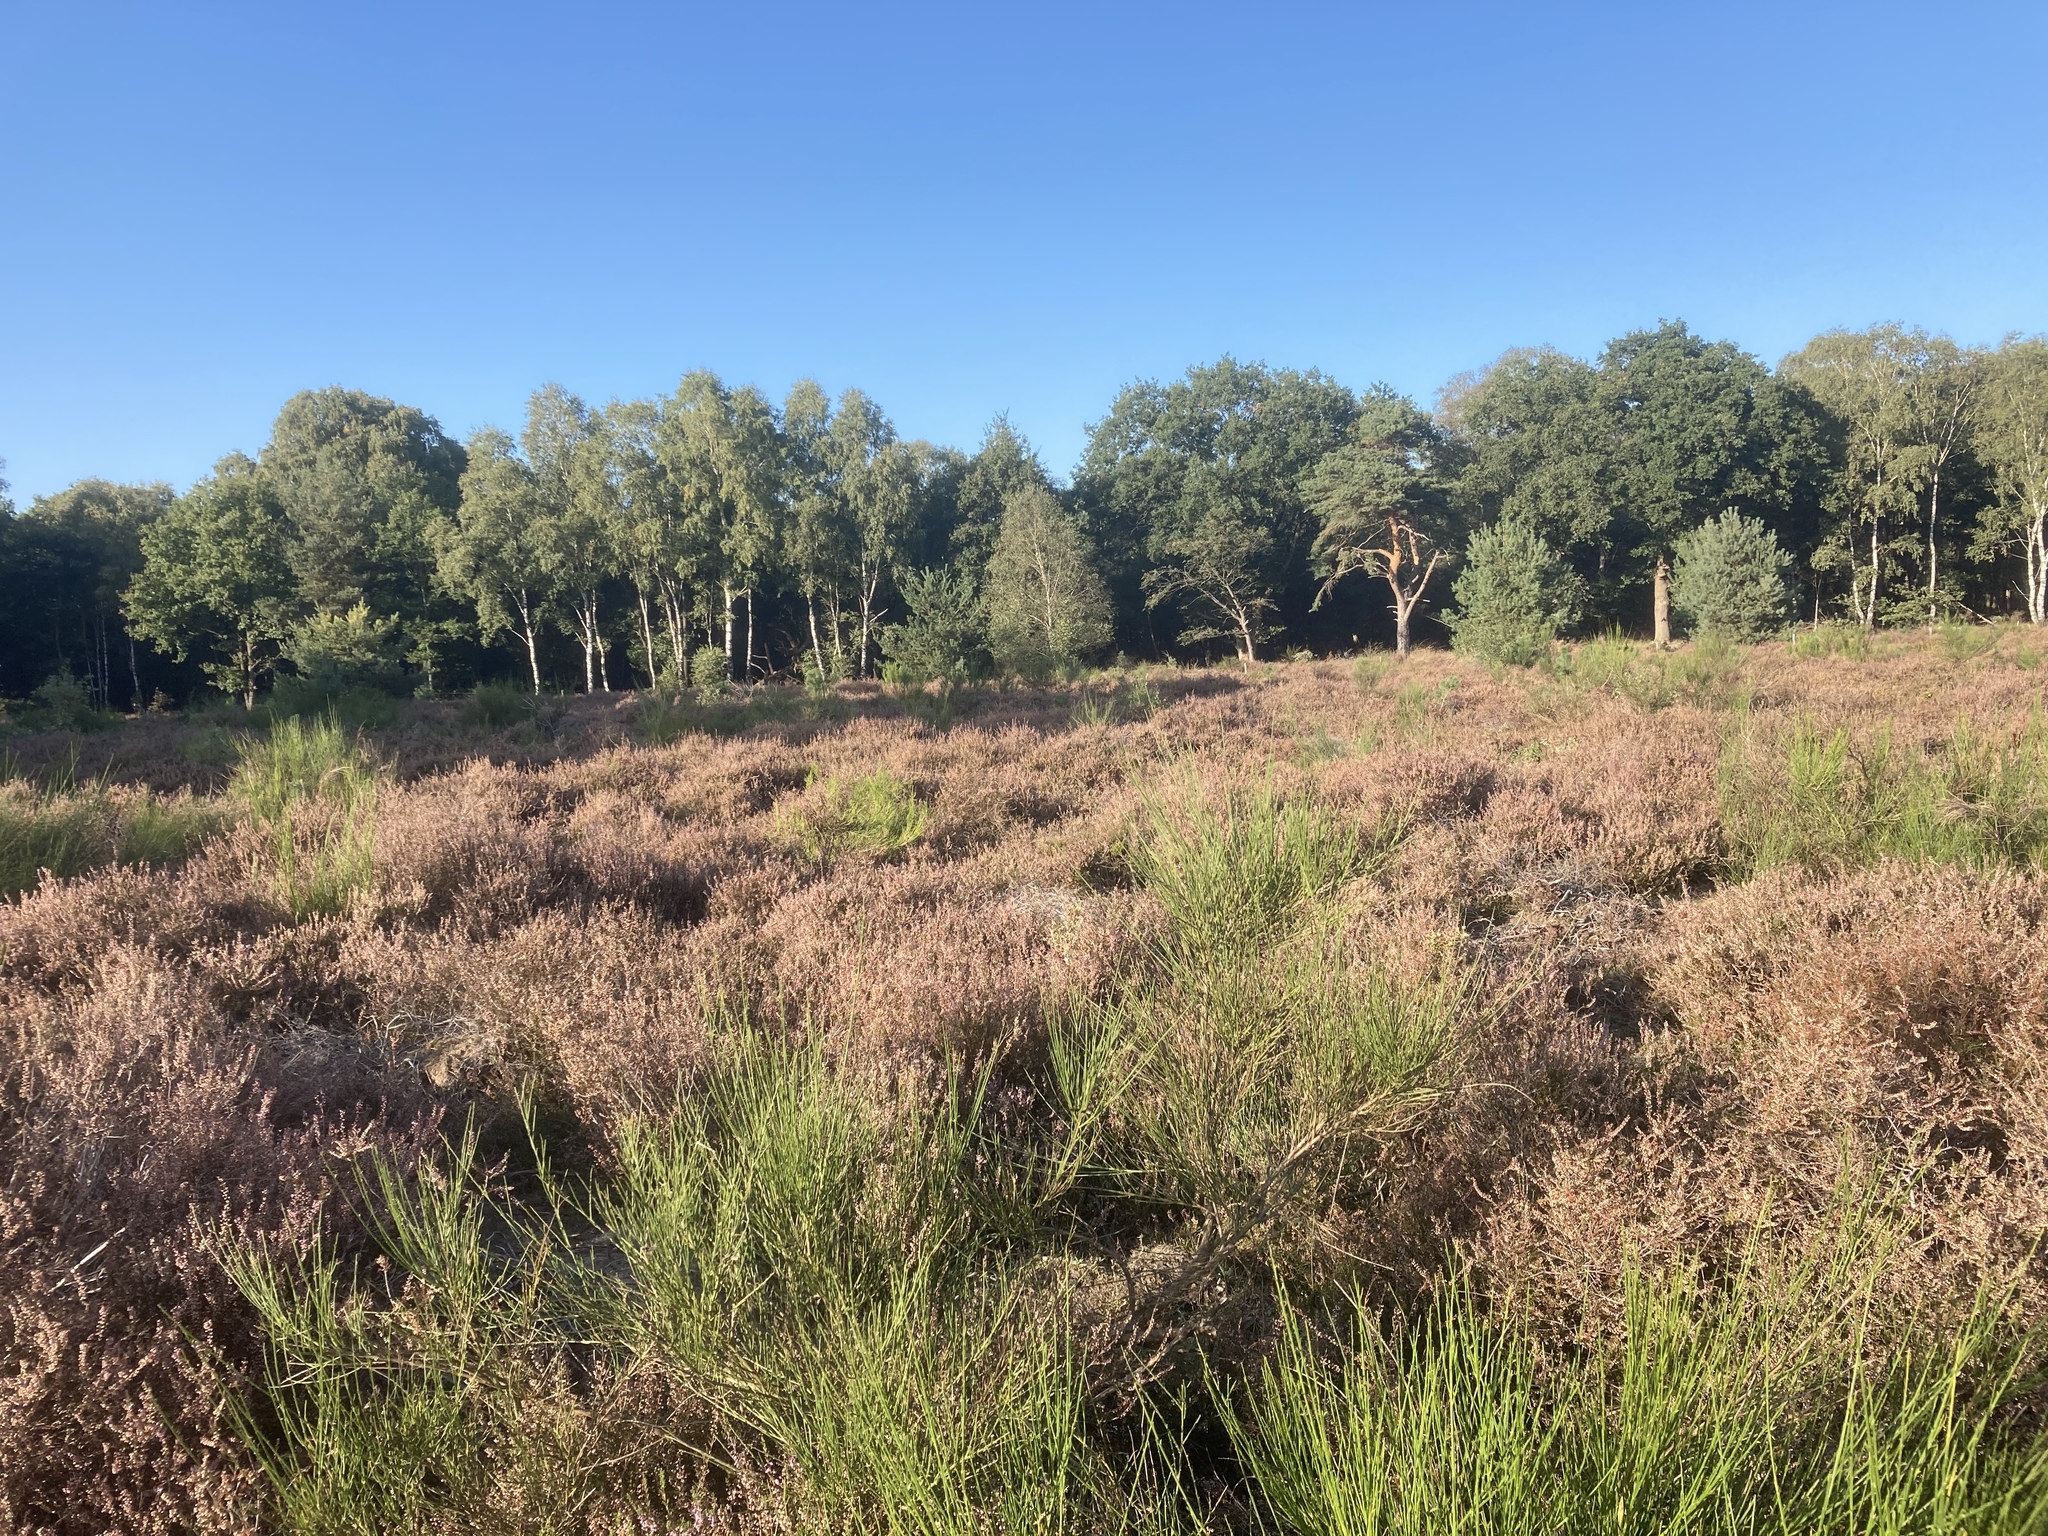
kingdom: Plantae
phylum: Tracheophyta
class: Magnoliopsida
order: Ericales
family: Ericaceae
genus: Calluna
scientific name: Calluna vulgaris
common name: Heather
